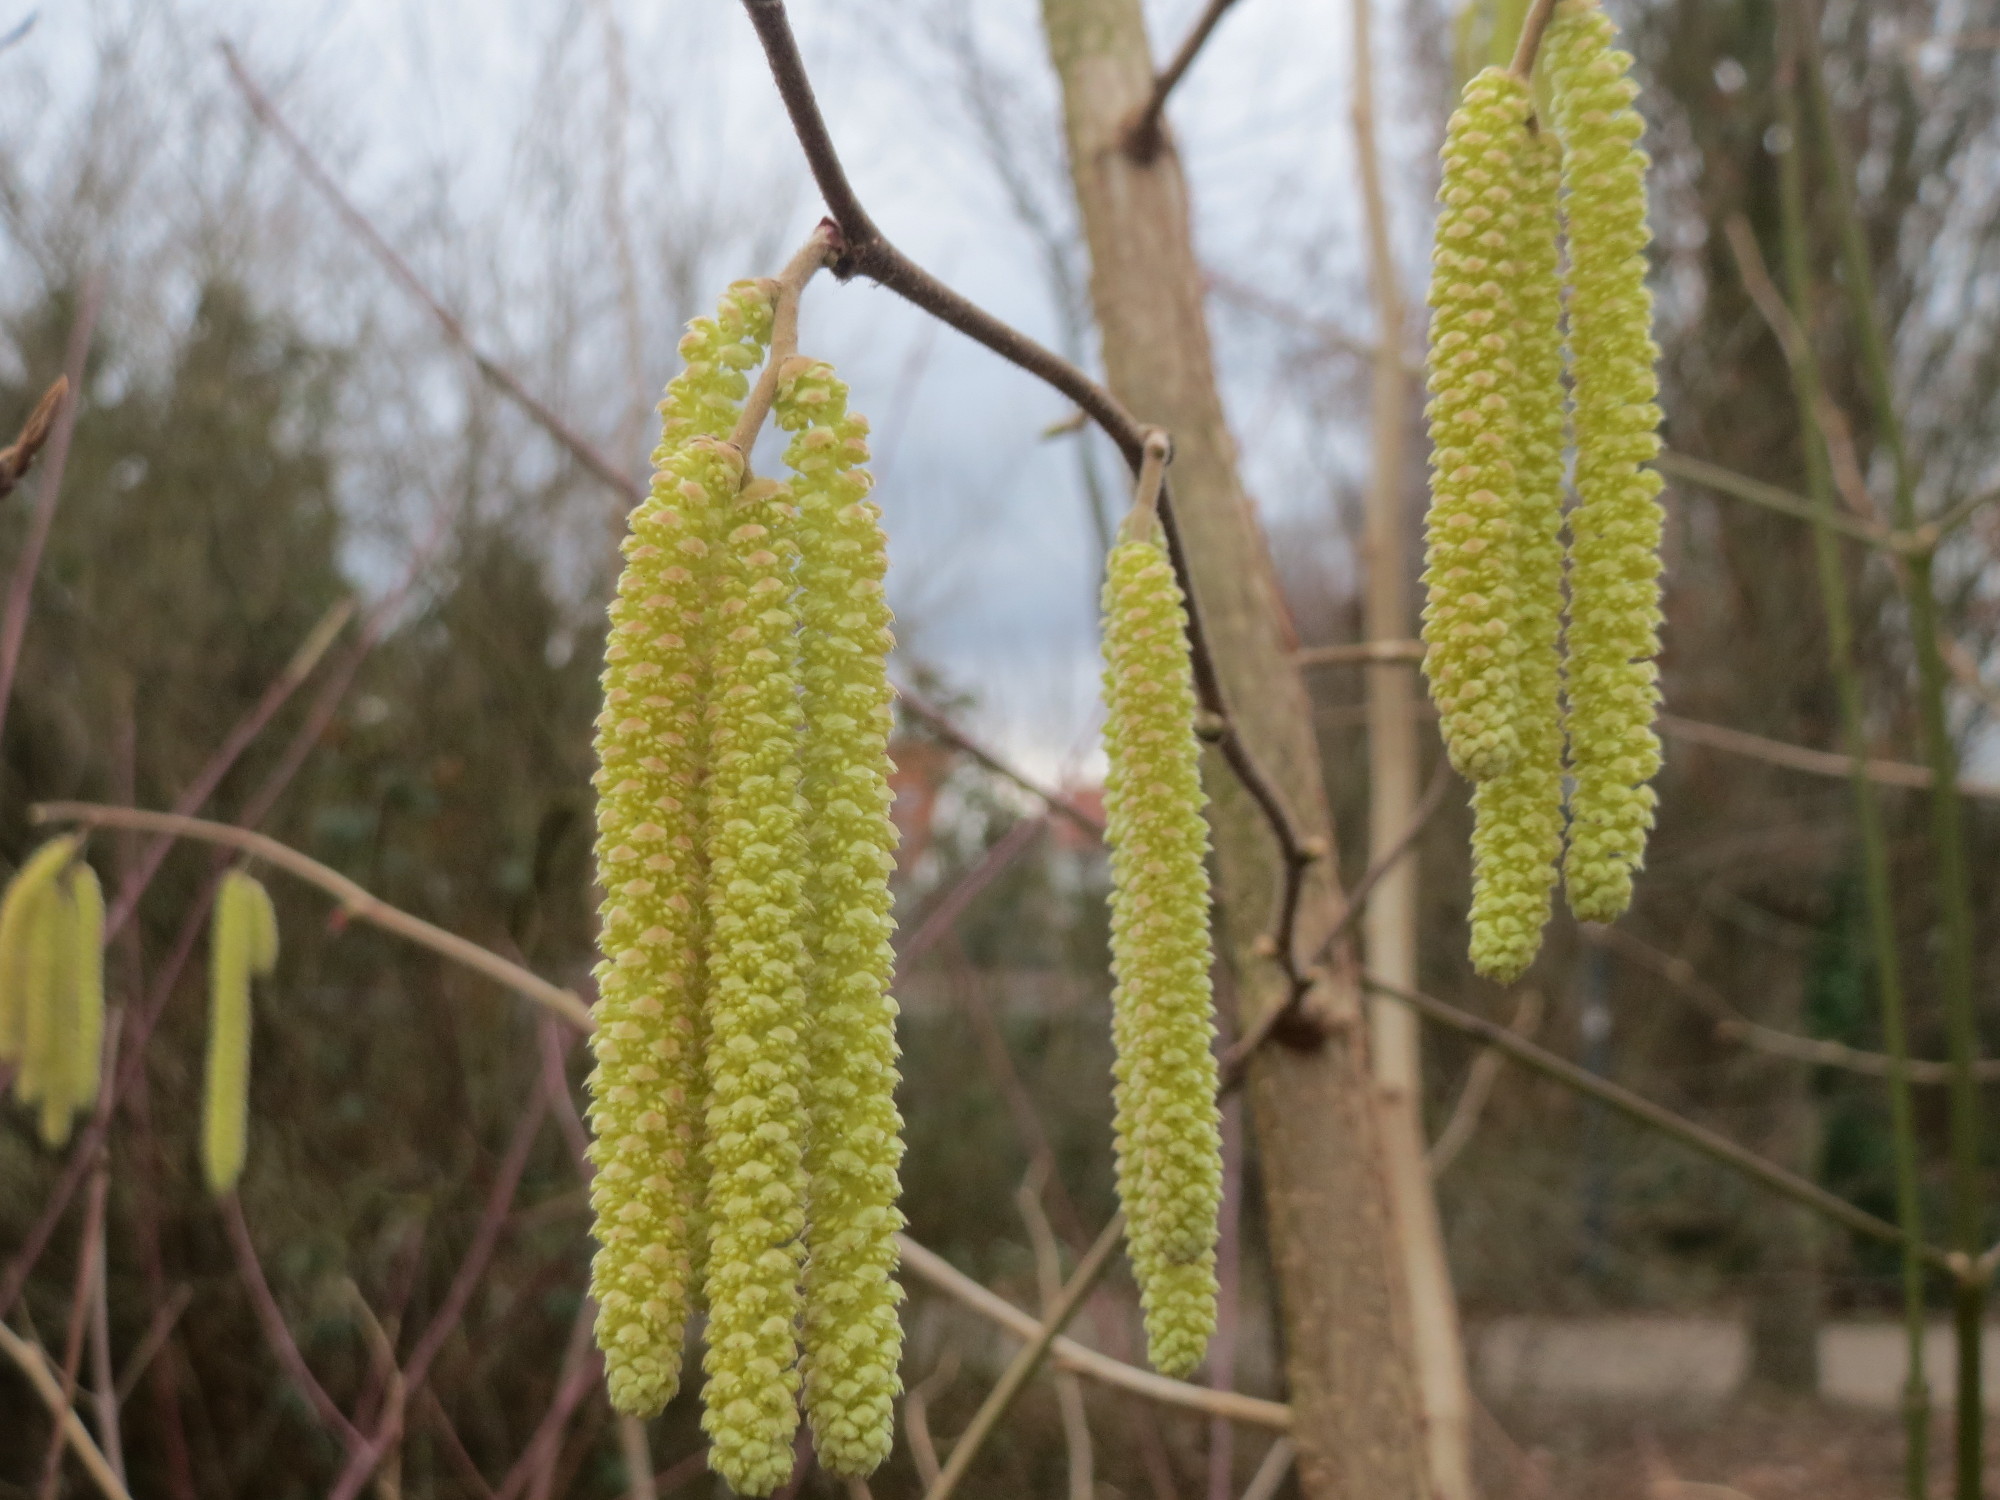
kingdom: Plantae
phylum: Tracheophyta
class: Magnoliopsida
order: Fagales
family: Betulaceae
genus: Corylus
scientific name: Corylus avellana
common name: European hazel
